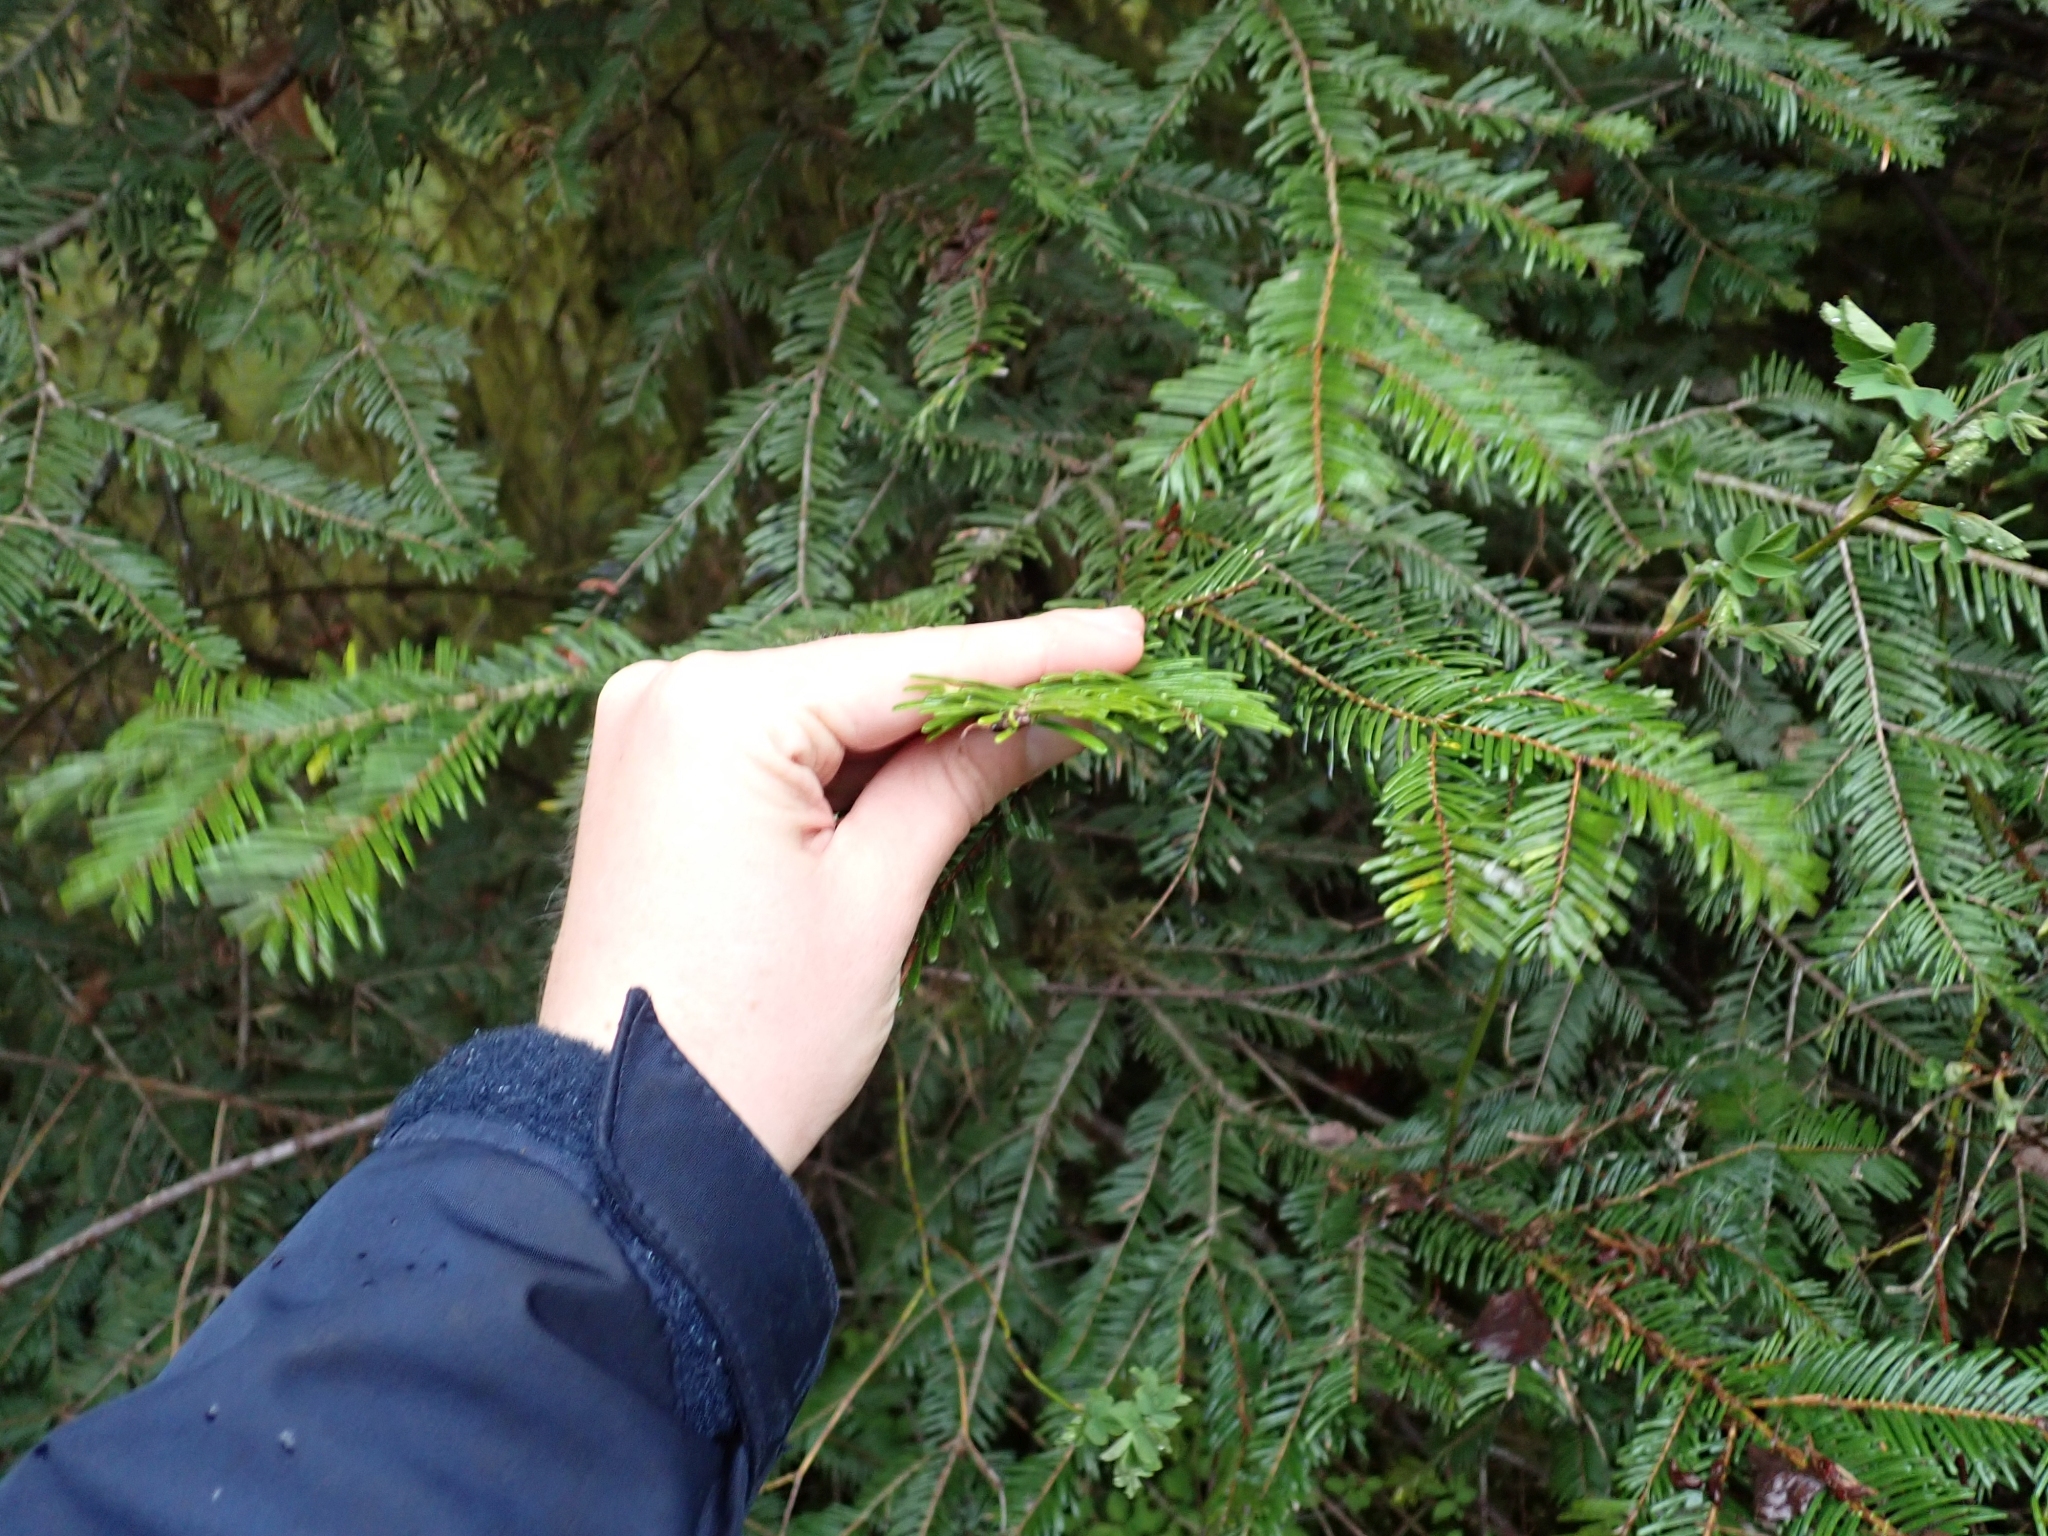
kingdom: Plantae
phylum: Tracheophyta
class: Pinopsida
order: Pinales
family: Pinaceae
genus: Abies
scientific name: Abies grandis
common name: Giant fir
